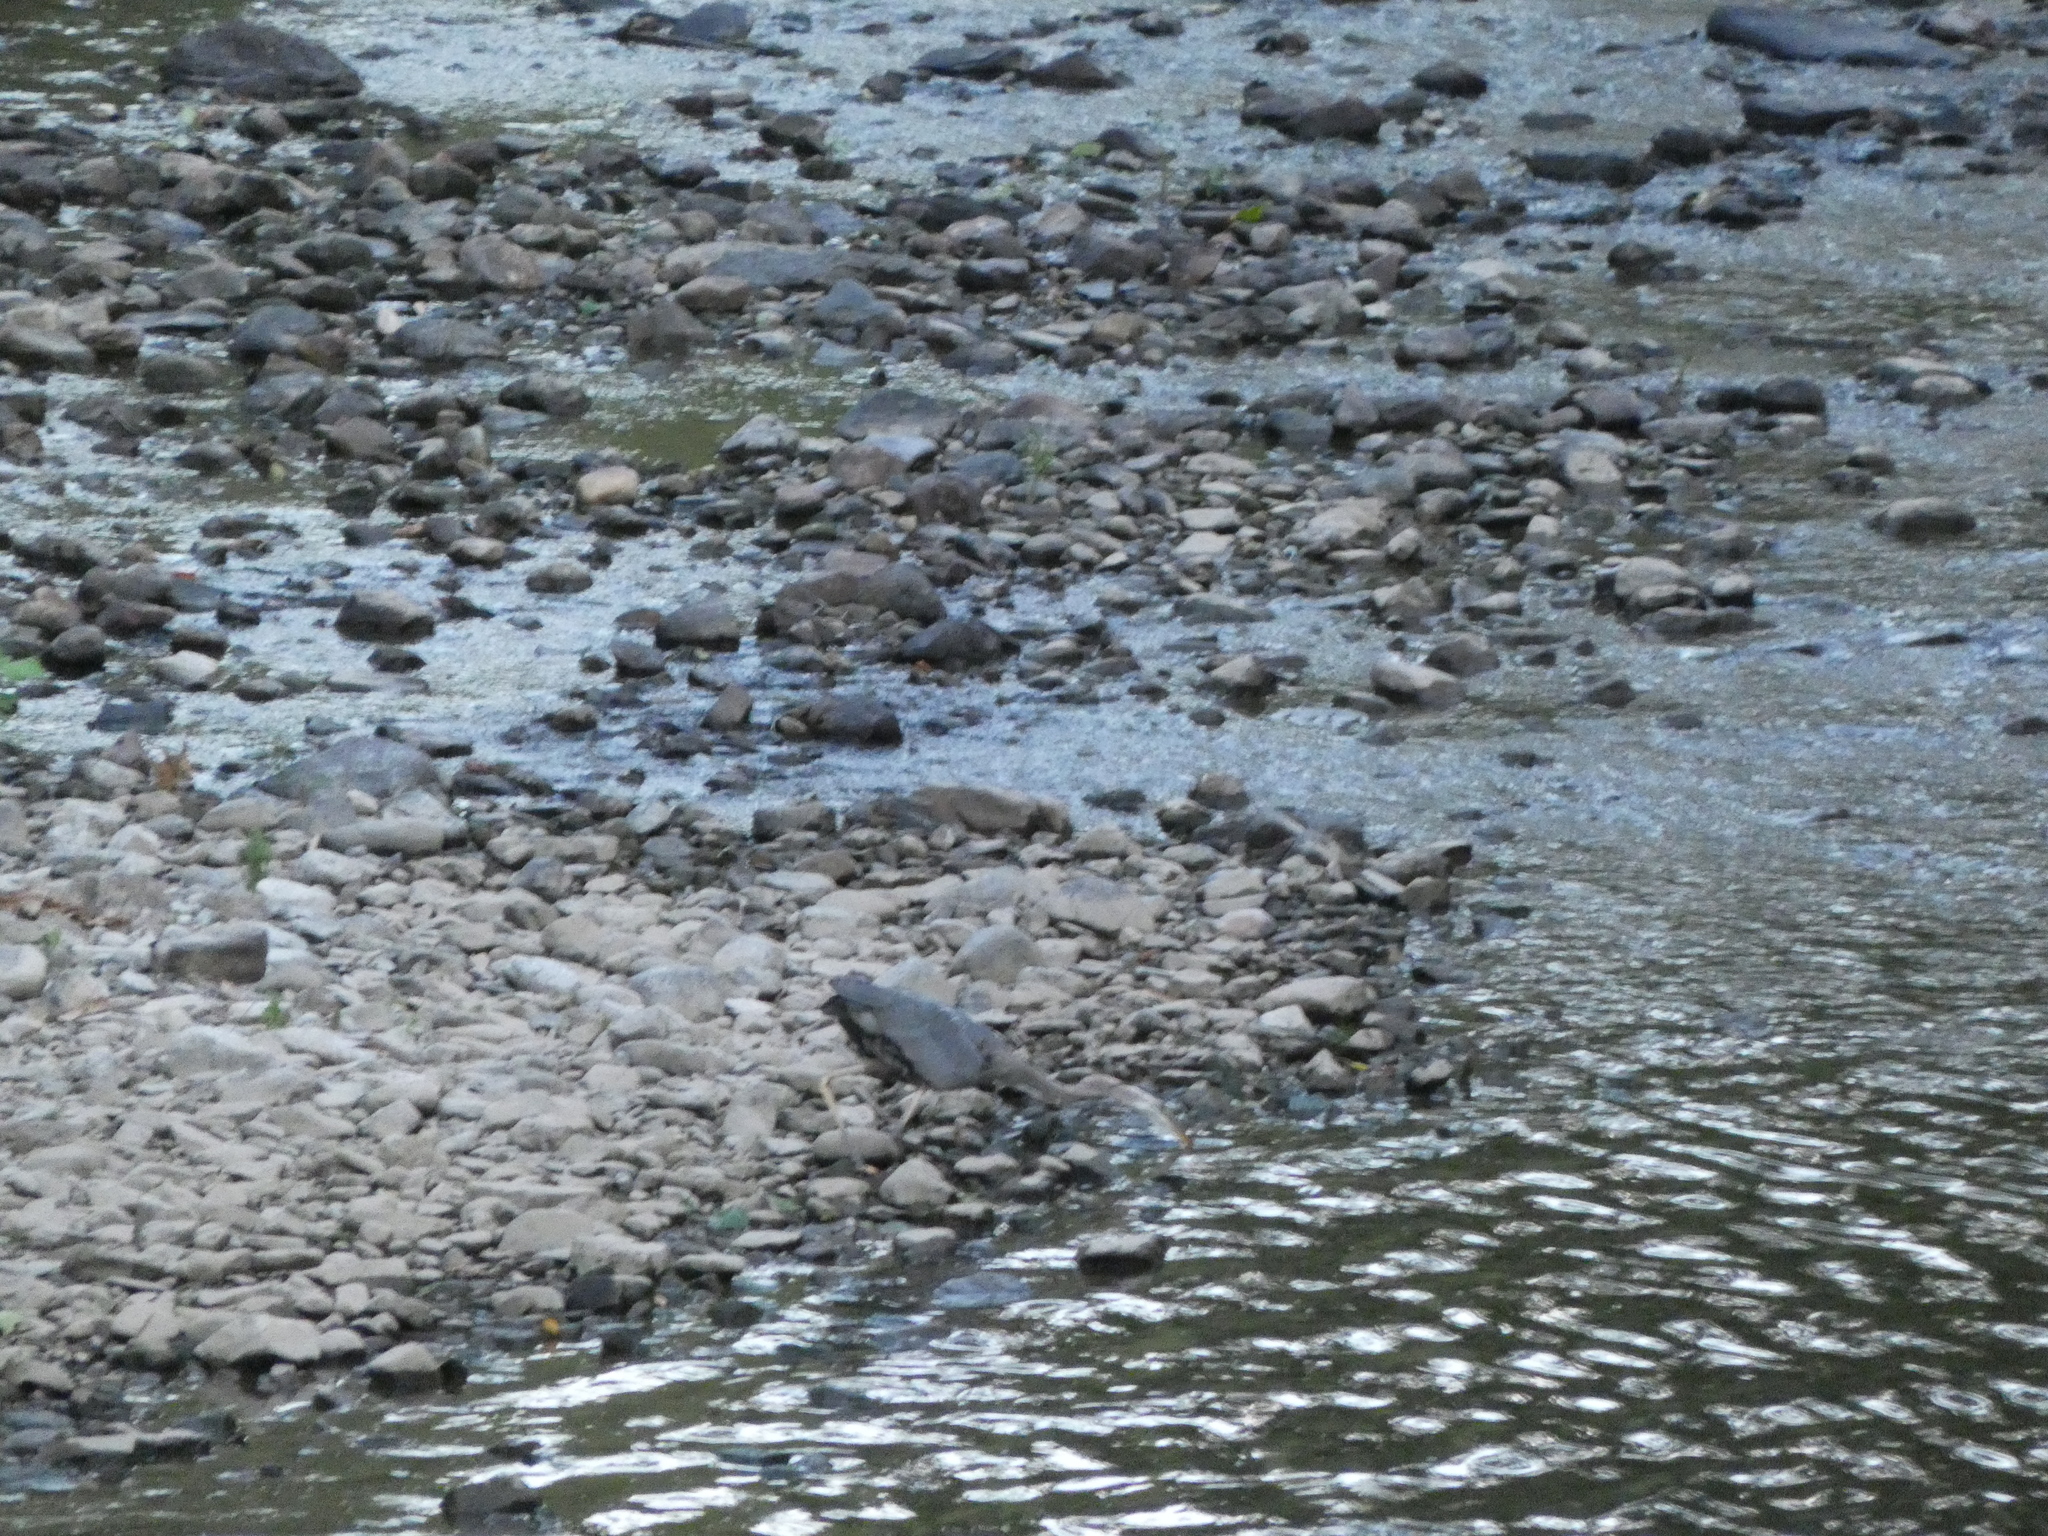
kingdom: Animalia
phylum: Chordata
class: Aves
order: Pelecaniformes
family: Ardeidae
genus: Ardea
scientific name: Ardea herodias
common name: Great blue heron
